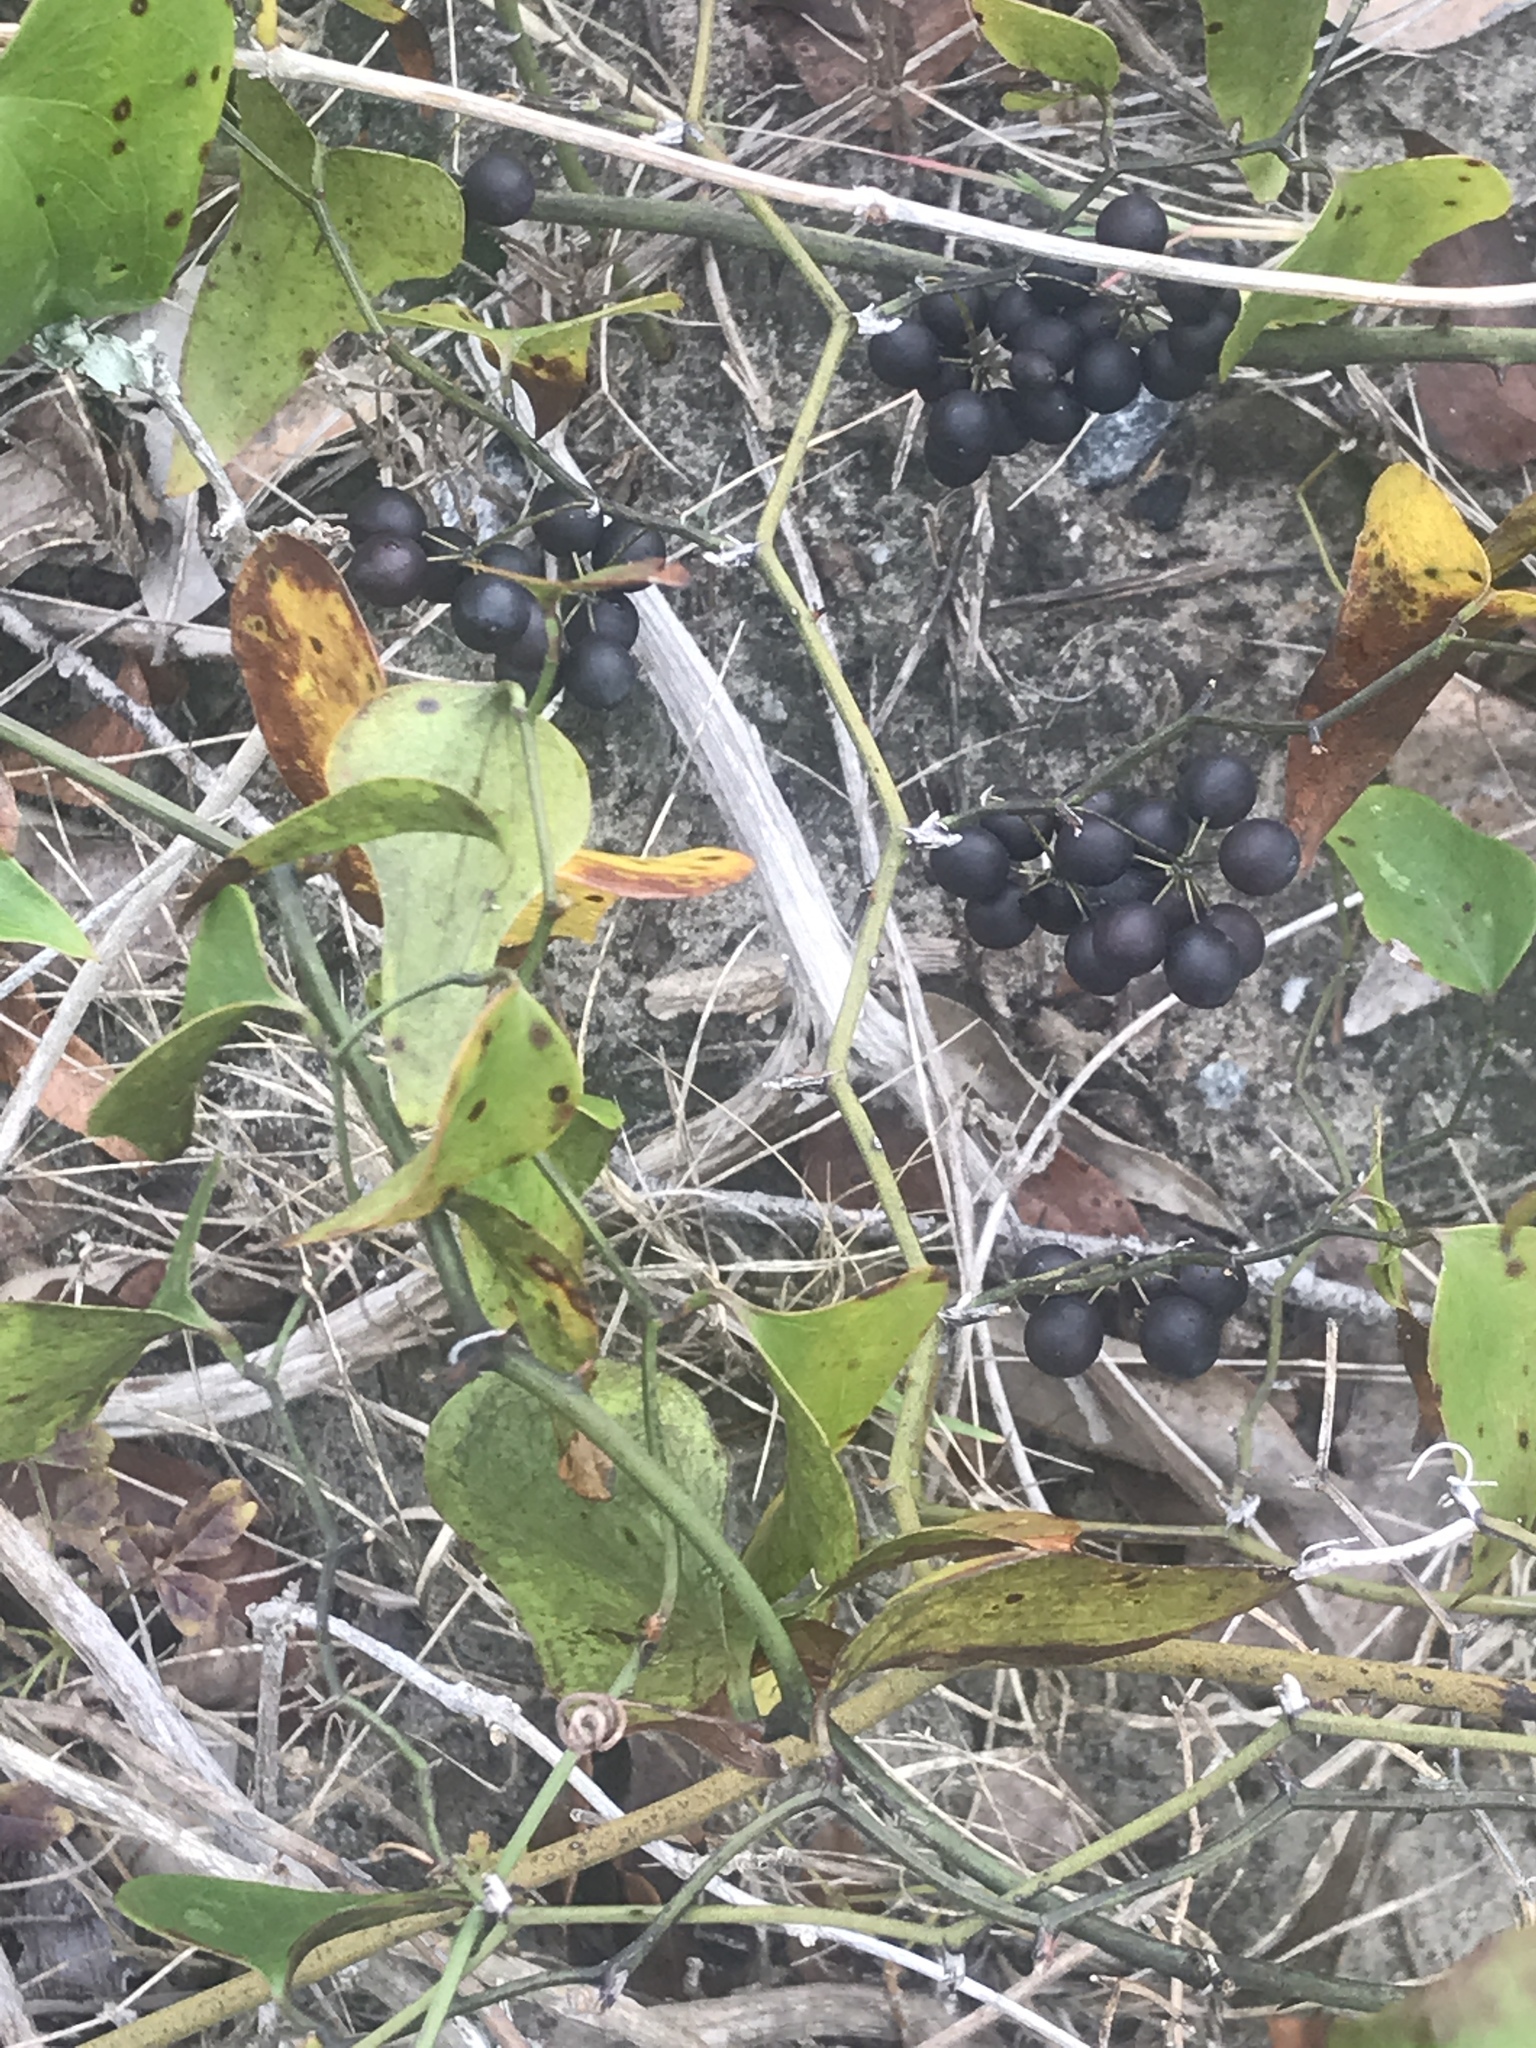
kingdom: Plantae
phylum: Tracheophyta
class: Liliopsida
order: Liliales
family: Smilacaceae
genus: Smilax
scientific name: Smilax bona-nox
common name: Catbrier
